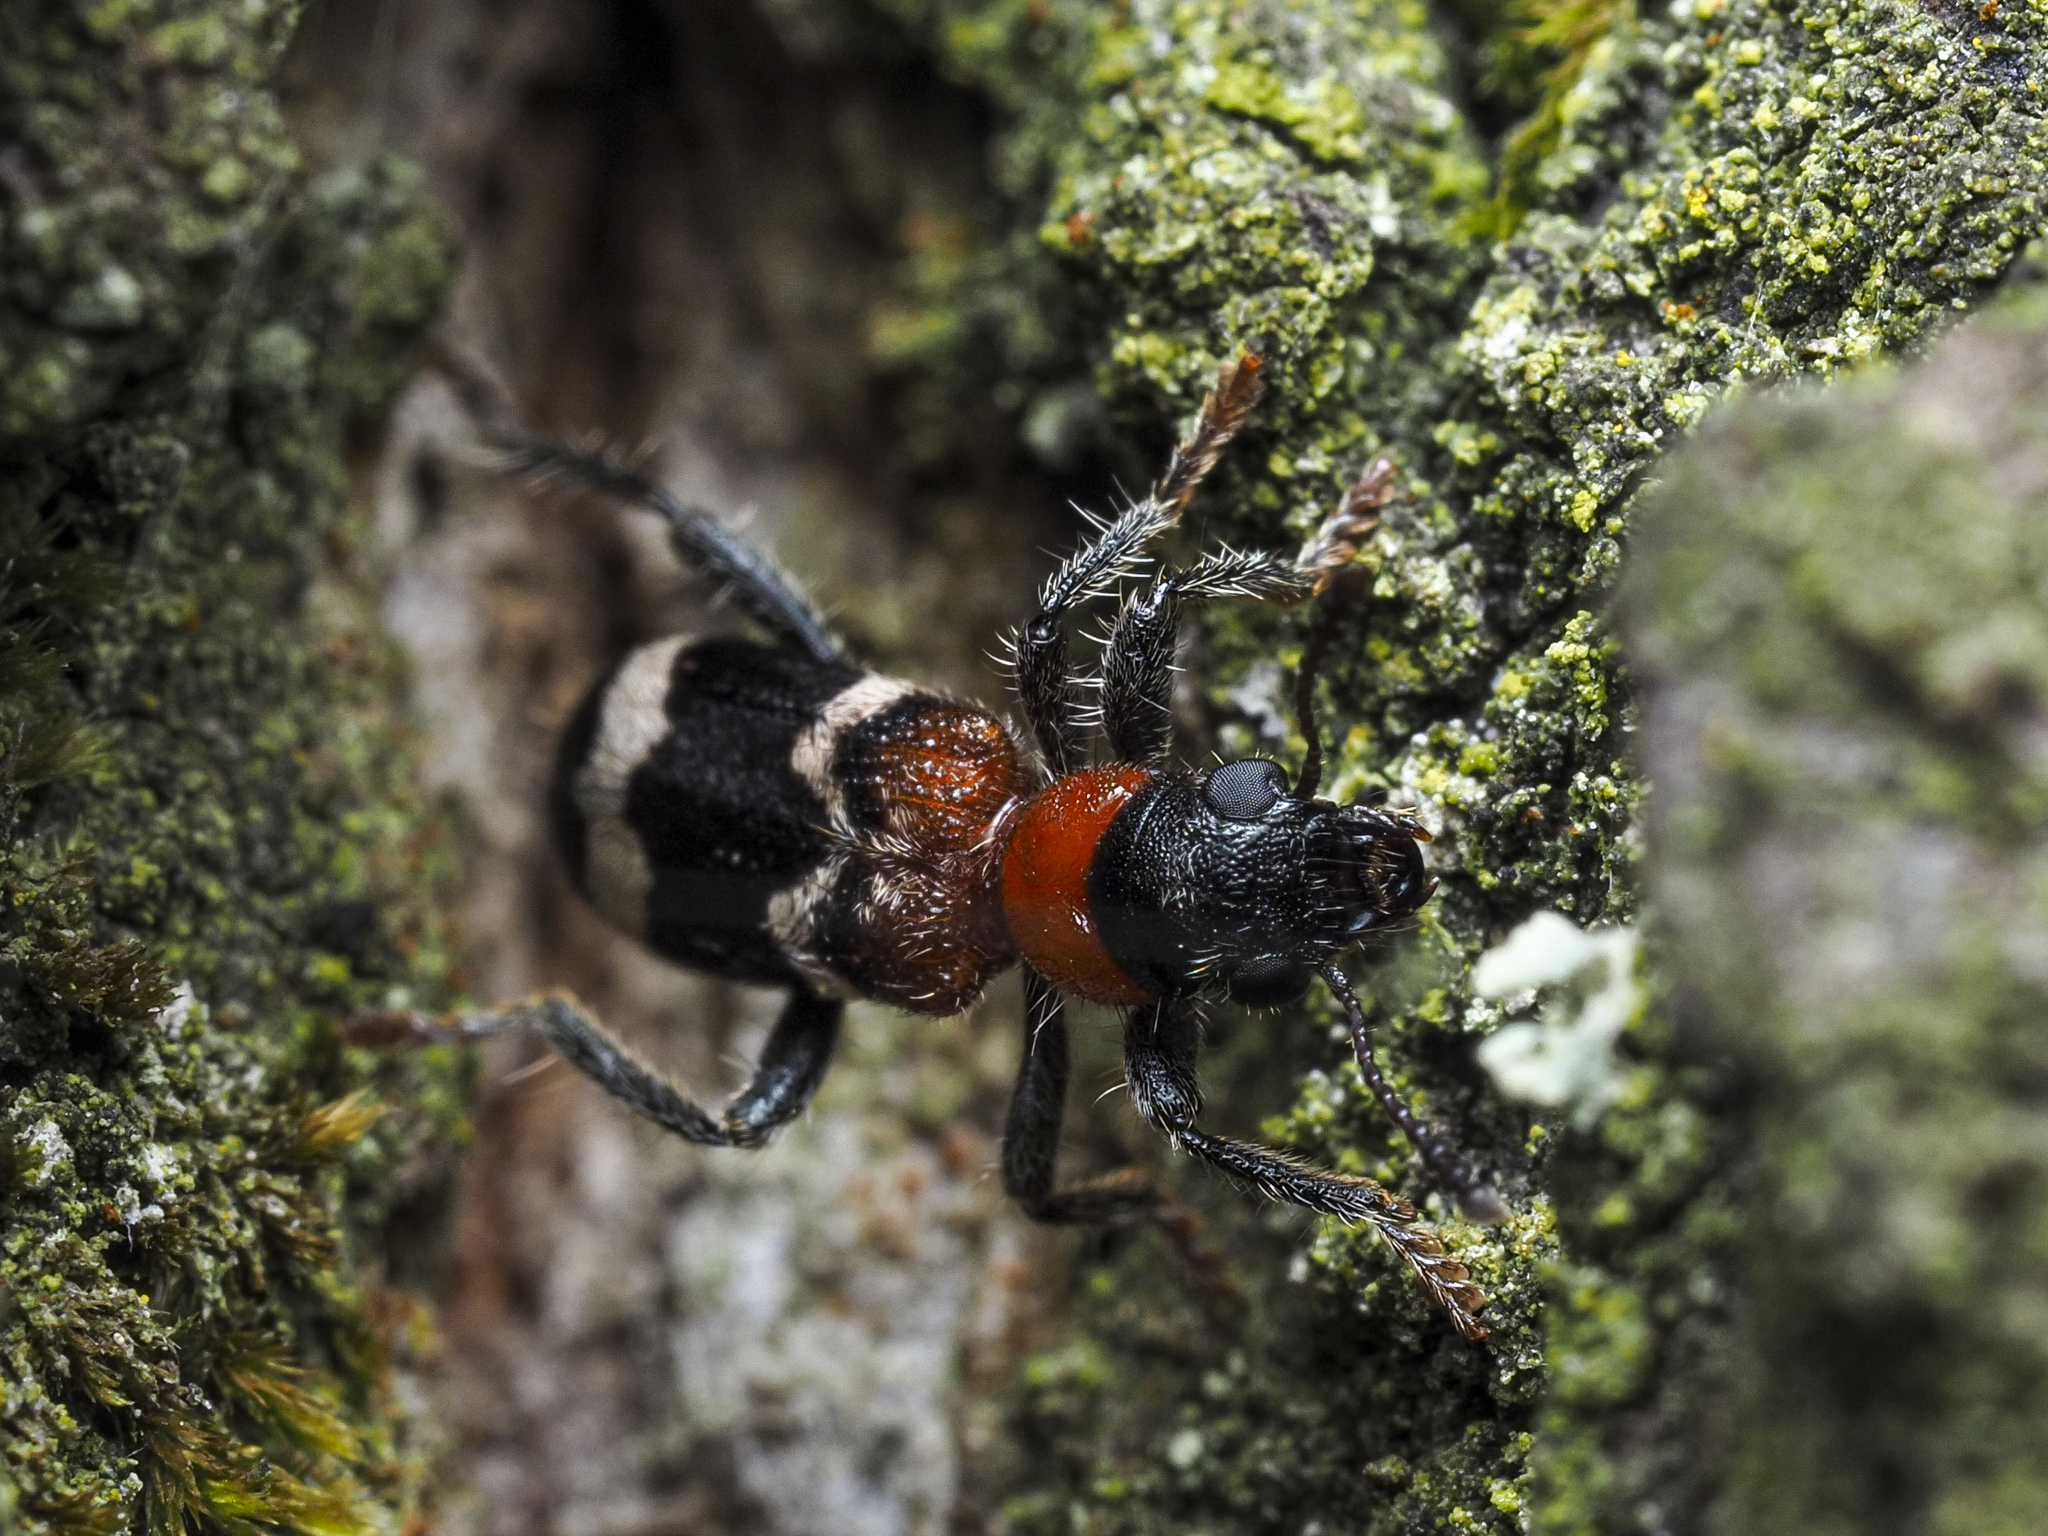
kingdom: Animalia
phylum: Arthropoda
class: Insecta
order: Coleoptera
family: Cleridae
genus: Thanasimus
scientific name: Thanasimus formicarius
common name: Ant beetle
